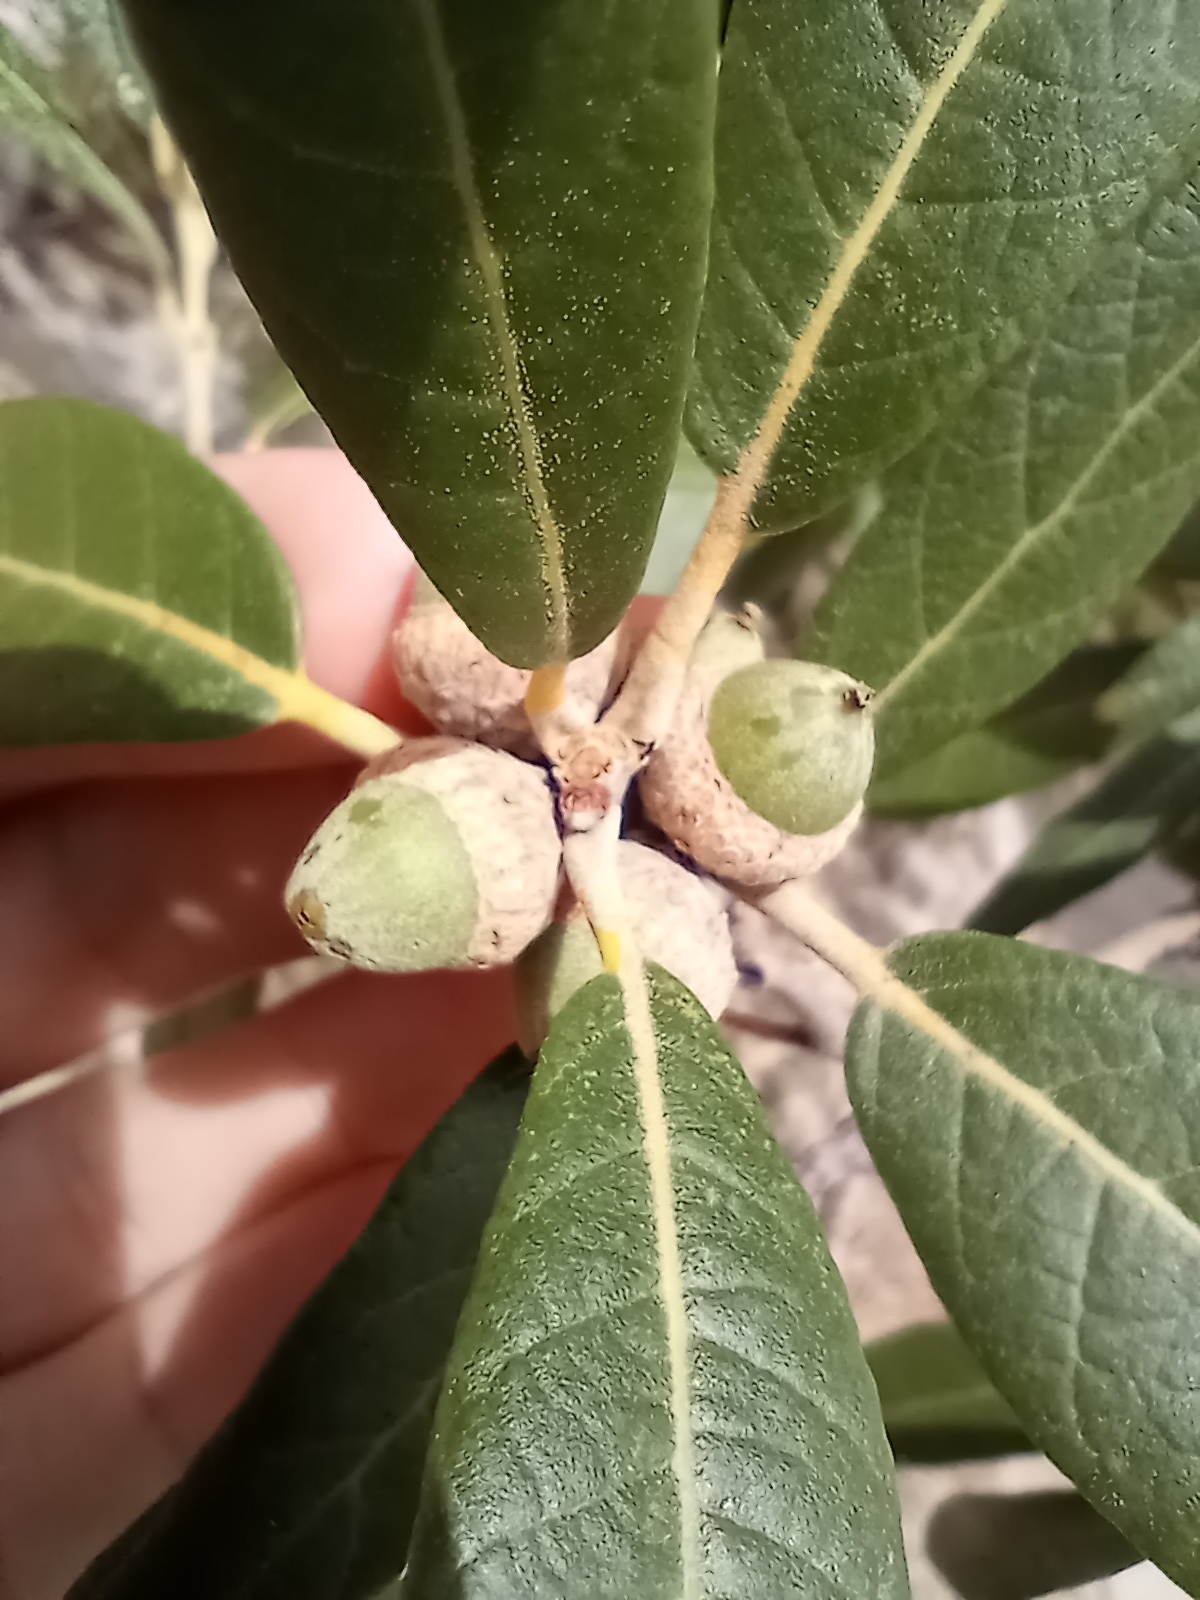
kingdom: Plantae
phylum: Tracheophyta
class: Magnoliopsida
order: Fagales
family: Fagaceae
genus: Quercus
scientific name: Quercus hypoleucoides
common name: Silverleaf oak
